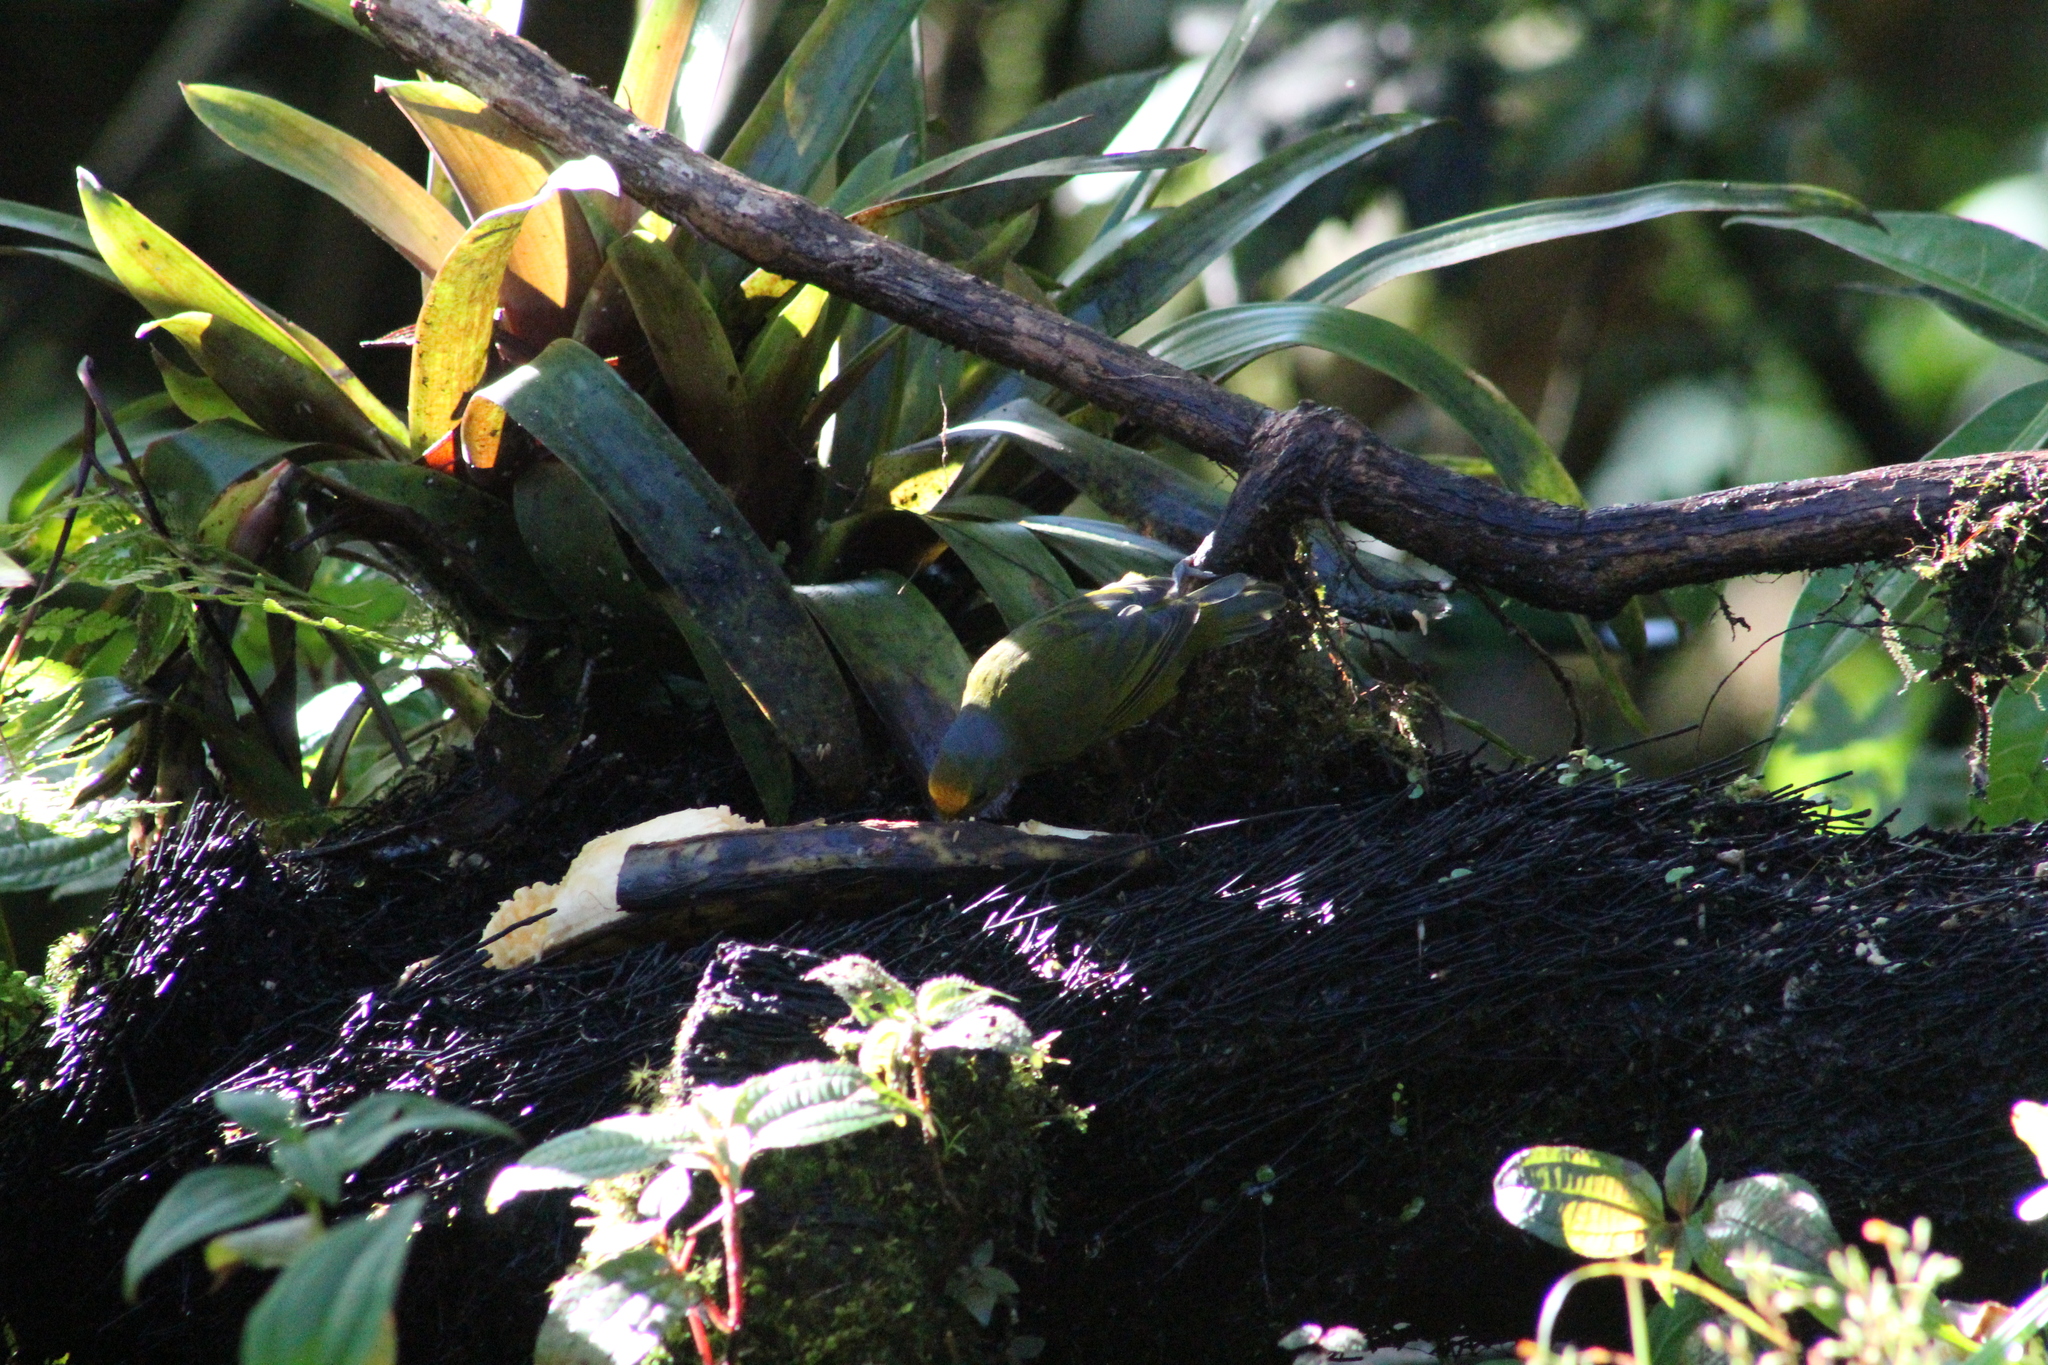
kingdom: Animalia
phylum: Chordata
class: Aves
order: Passeriformes
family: Fringillidae
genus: Euphonia
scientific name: Euphonia cyanocephala
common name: Golden-rumped euphonia
